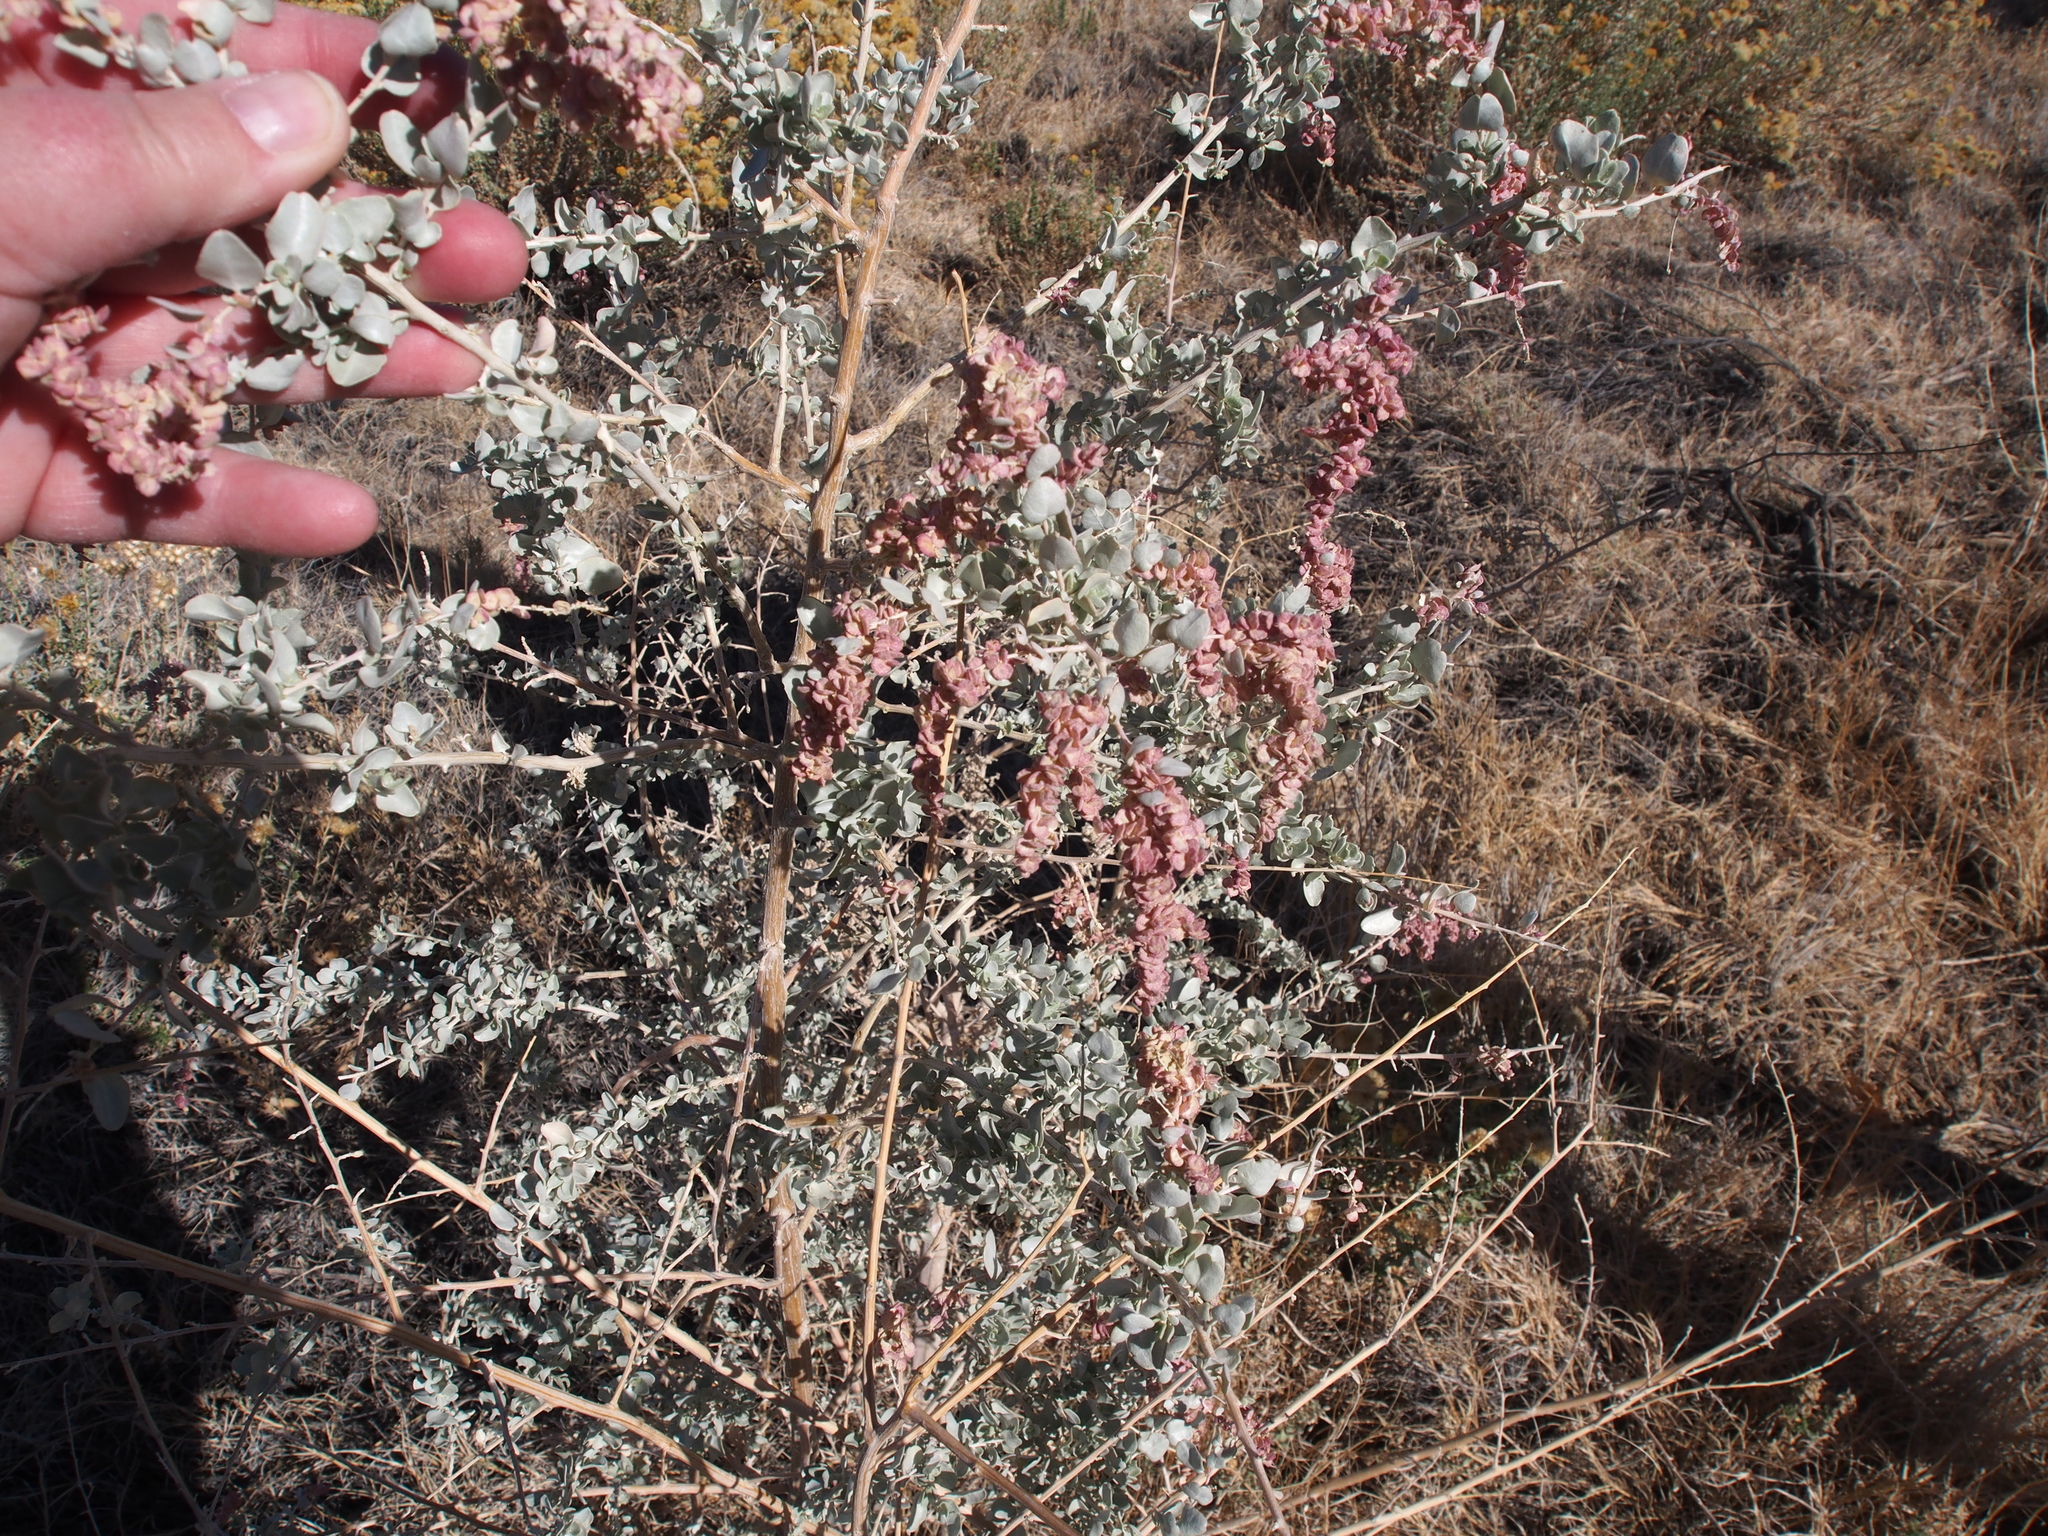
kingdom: Plantae
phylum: Tracheophyta
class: Magnoliopsida
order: Caryophyllales
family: Amaranthaceae
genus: Atriplex
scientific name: Atriplex lentiformis
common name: Big saltbush
